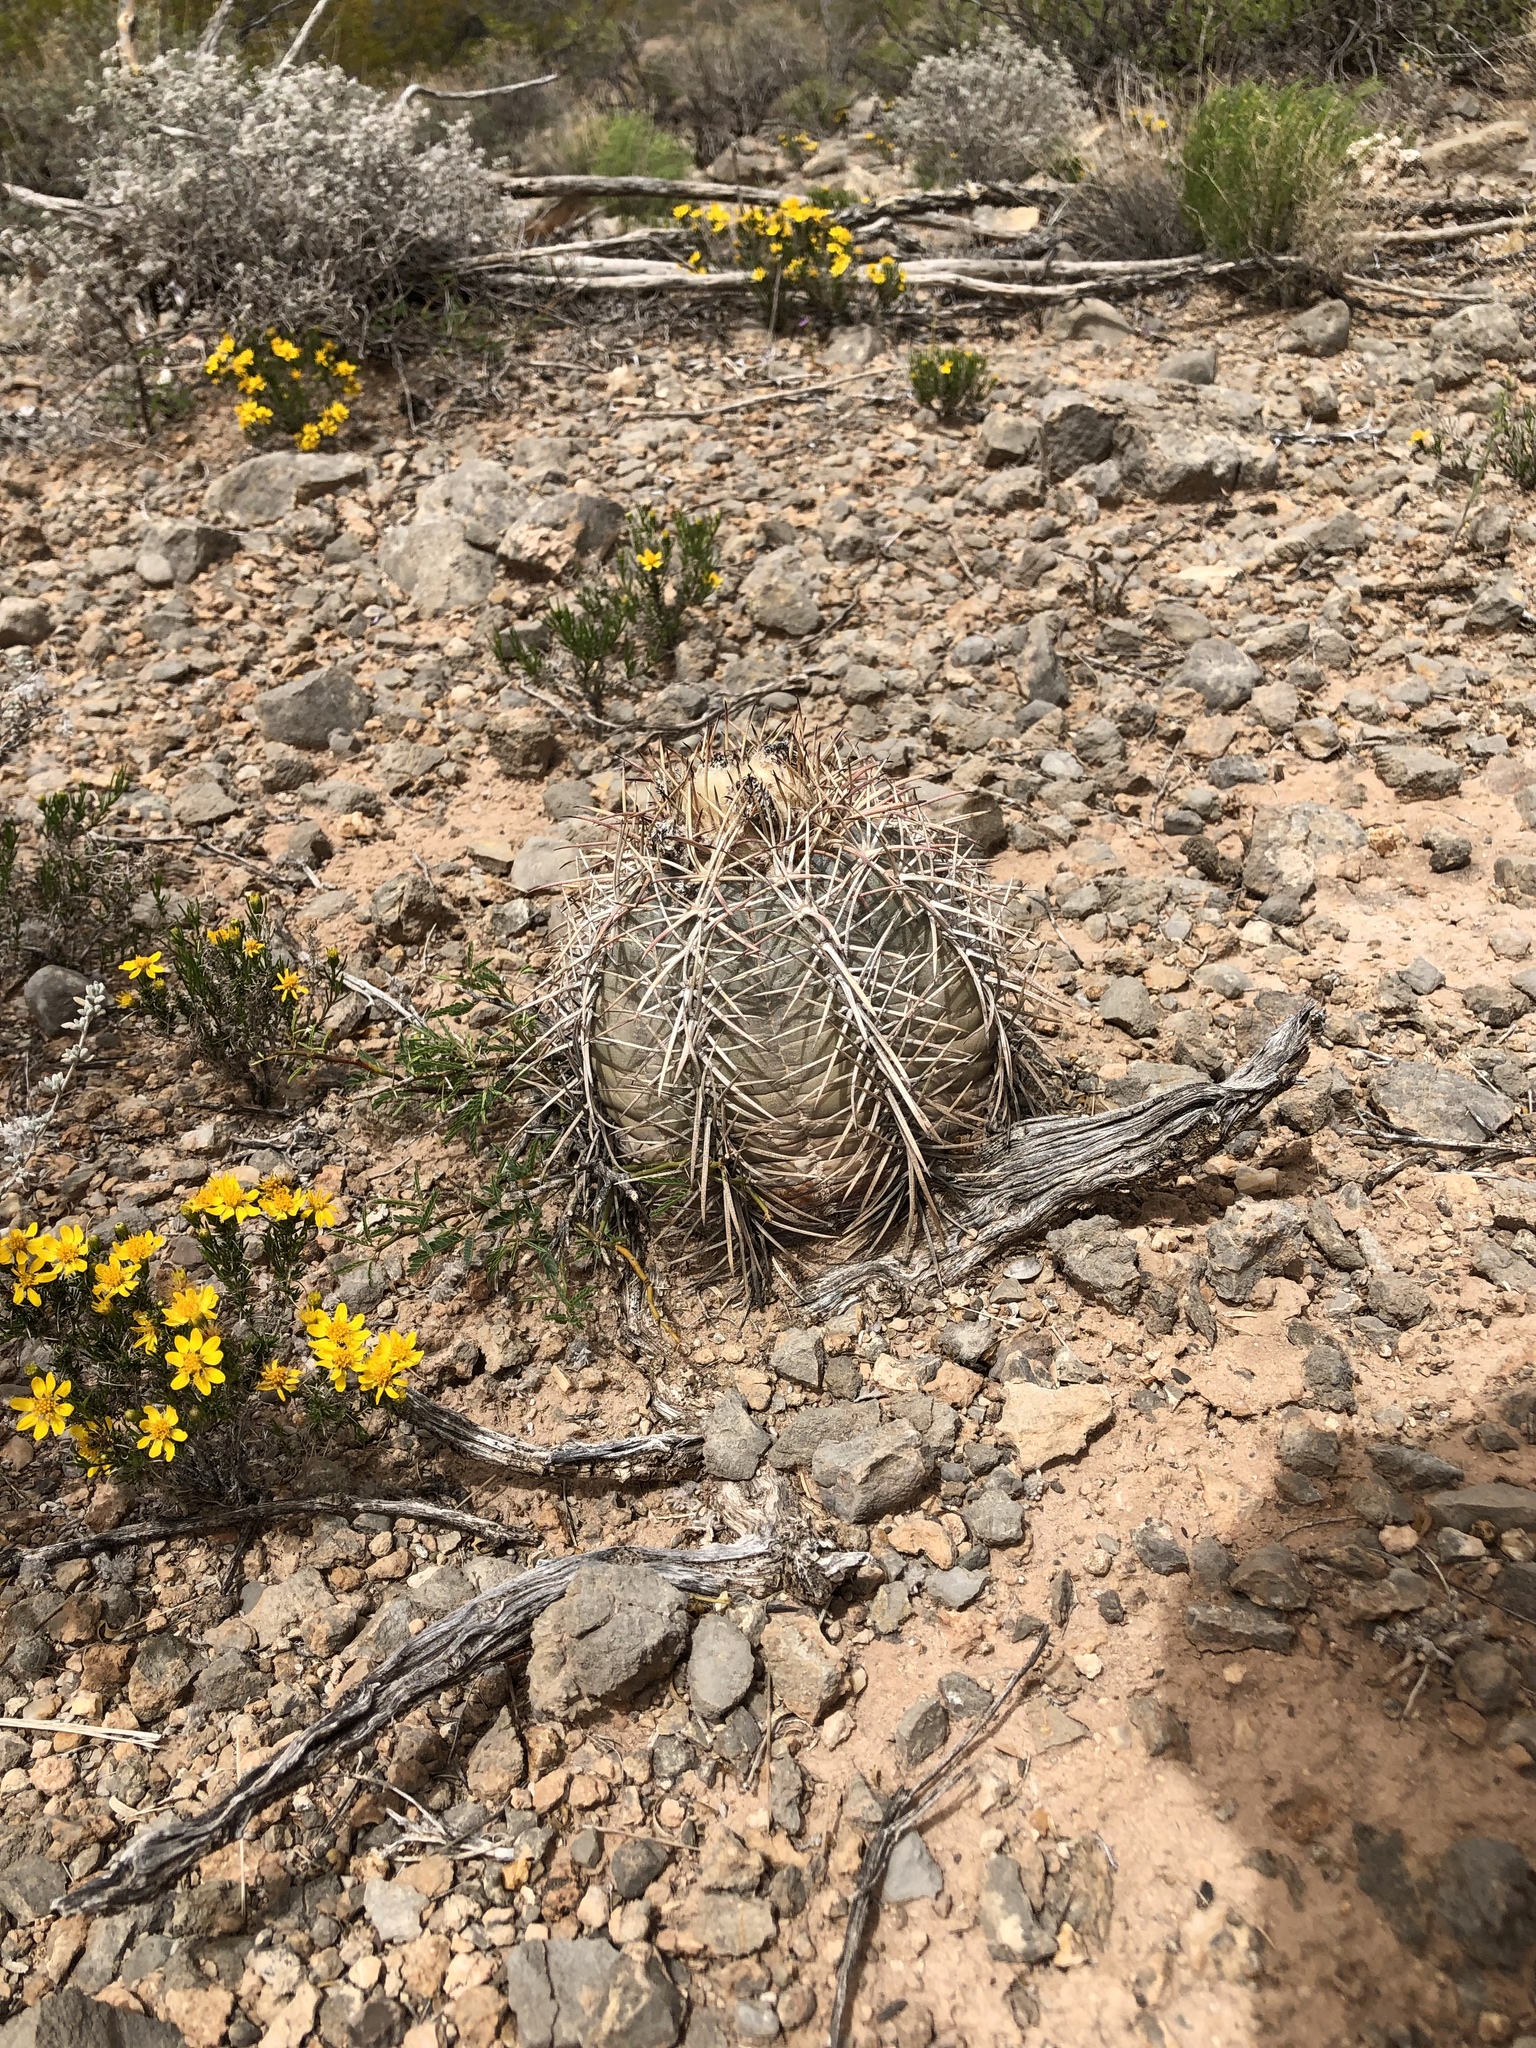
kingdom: Plantae
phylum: Tracheophyta
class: Magnoliopsida
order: Caryophyllales
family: Cactaceae
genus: Echinocactus
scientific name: Echinocactus horizonthalonius
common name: Devilshead
